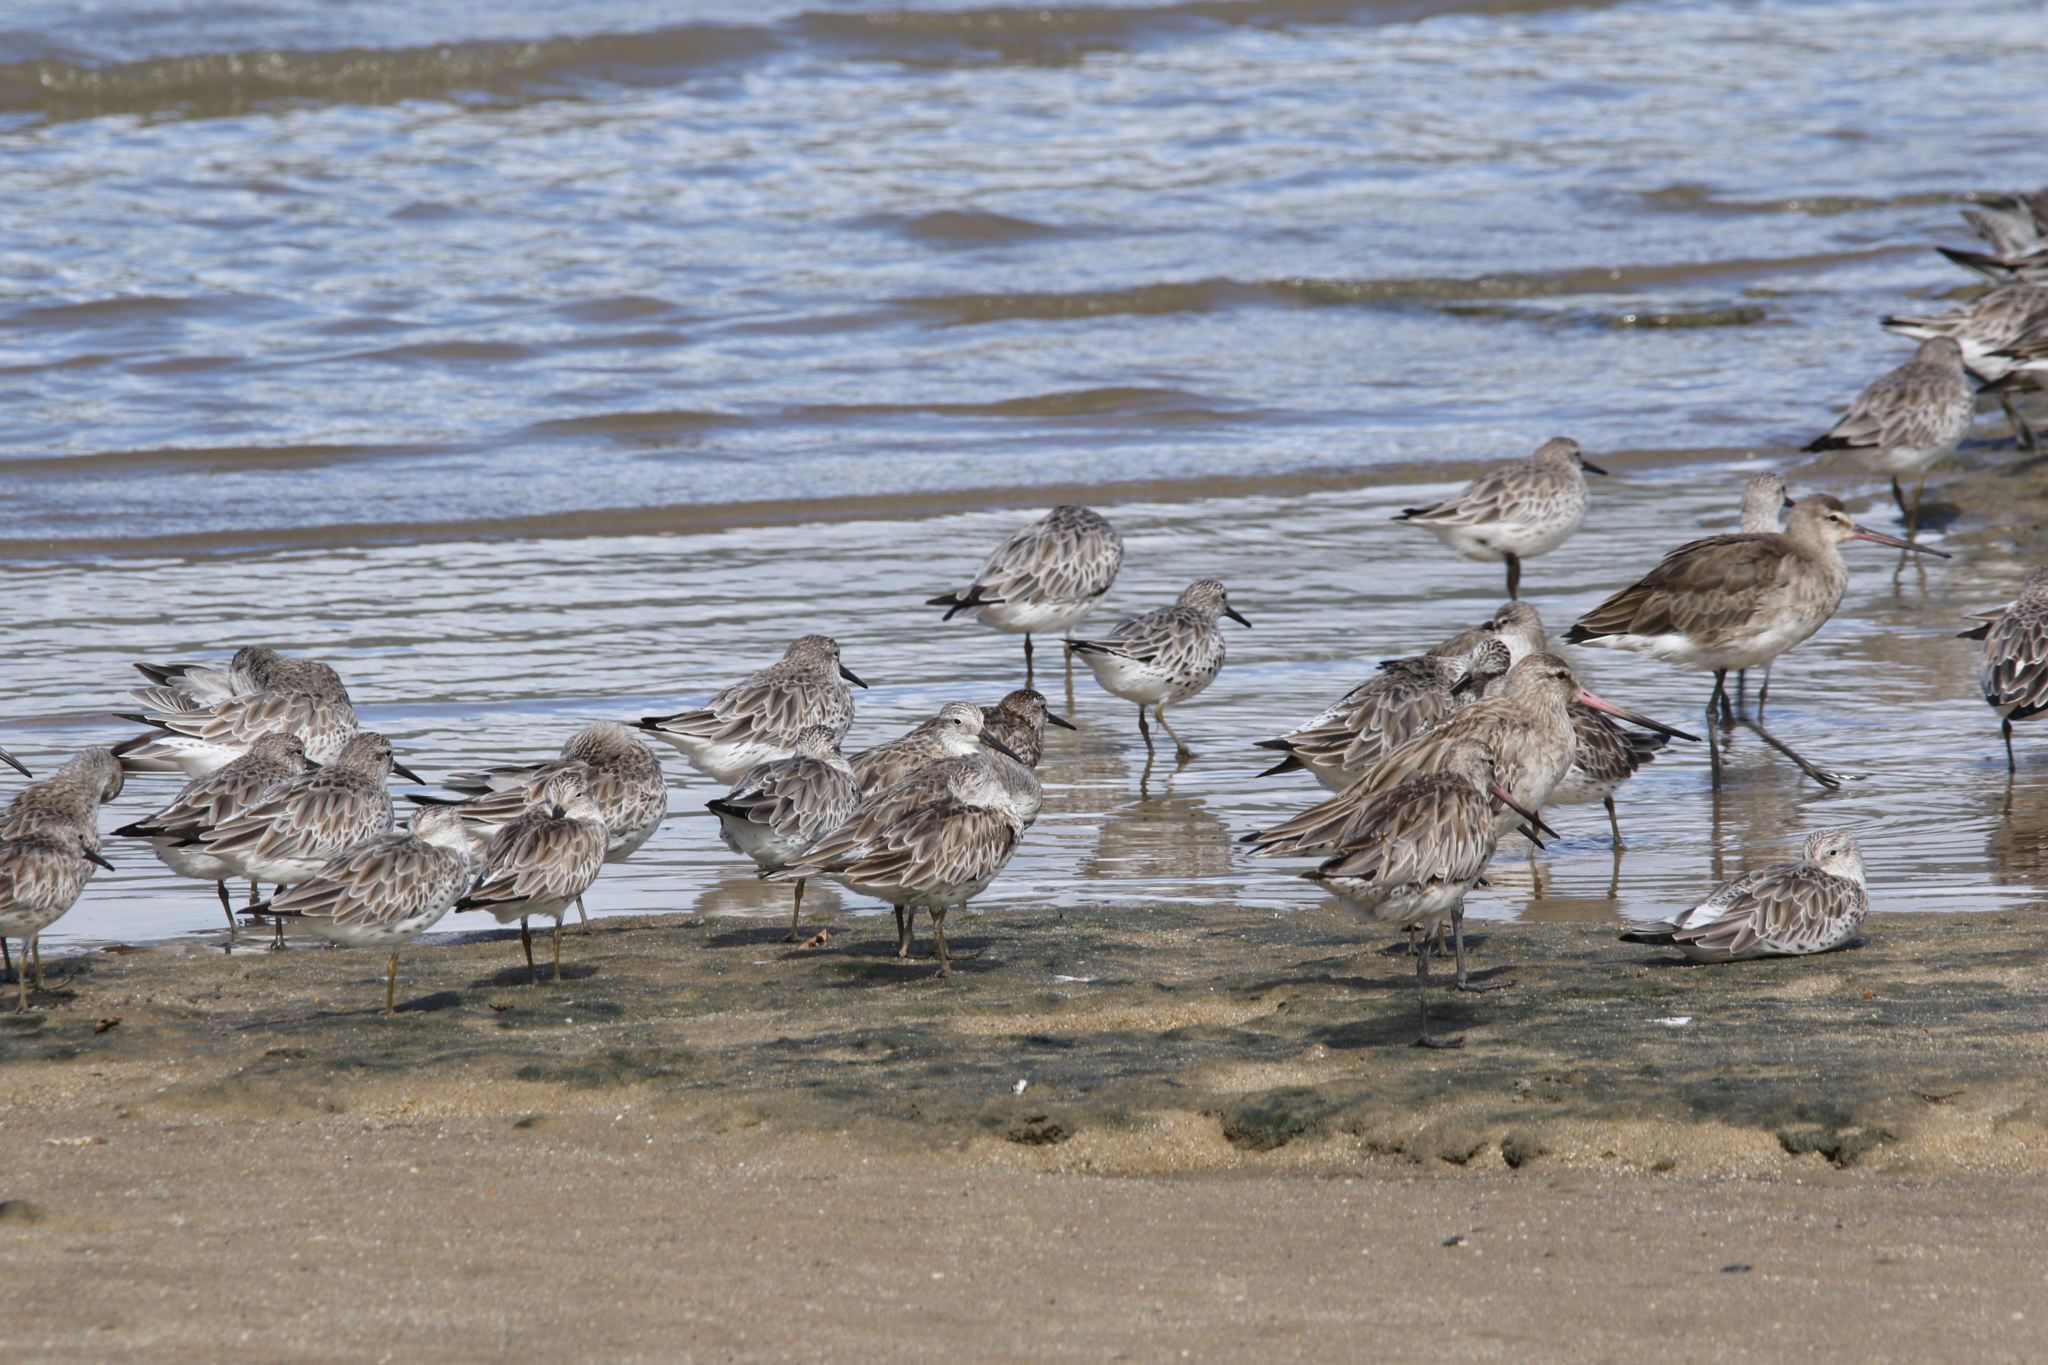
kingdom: Animalia
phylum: Chordata
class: Aves
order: Charadriiformes
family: Scolopacidae
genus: Calidris
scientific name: Calidris tenuirostris
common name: Great knot
